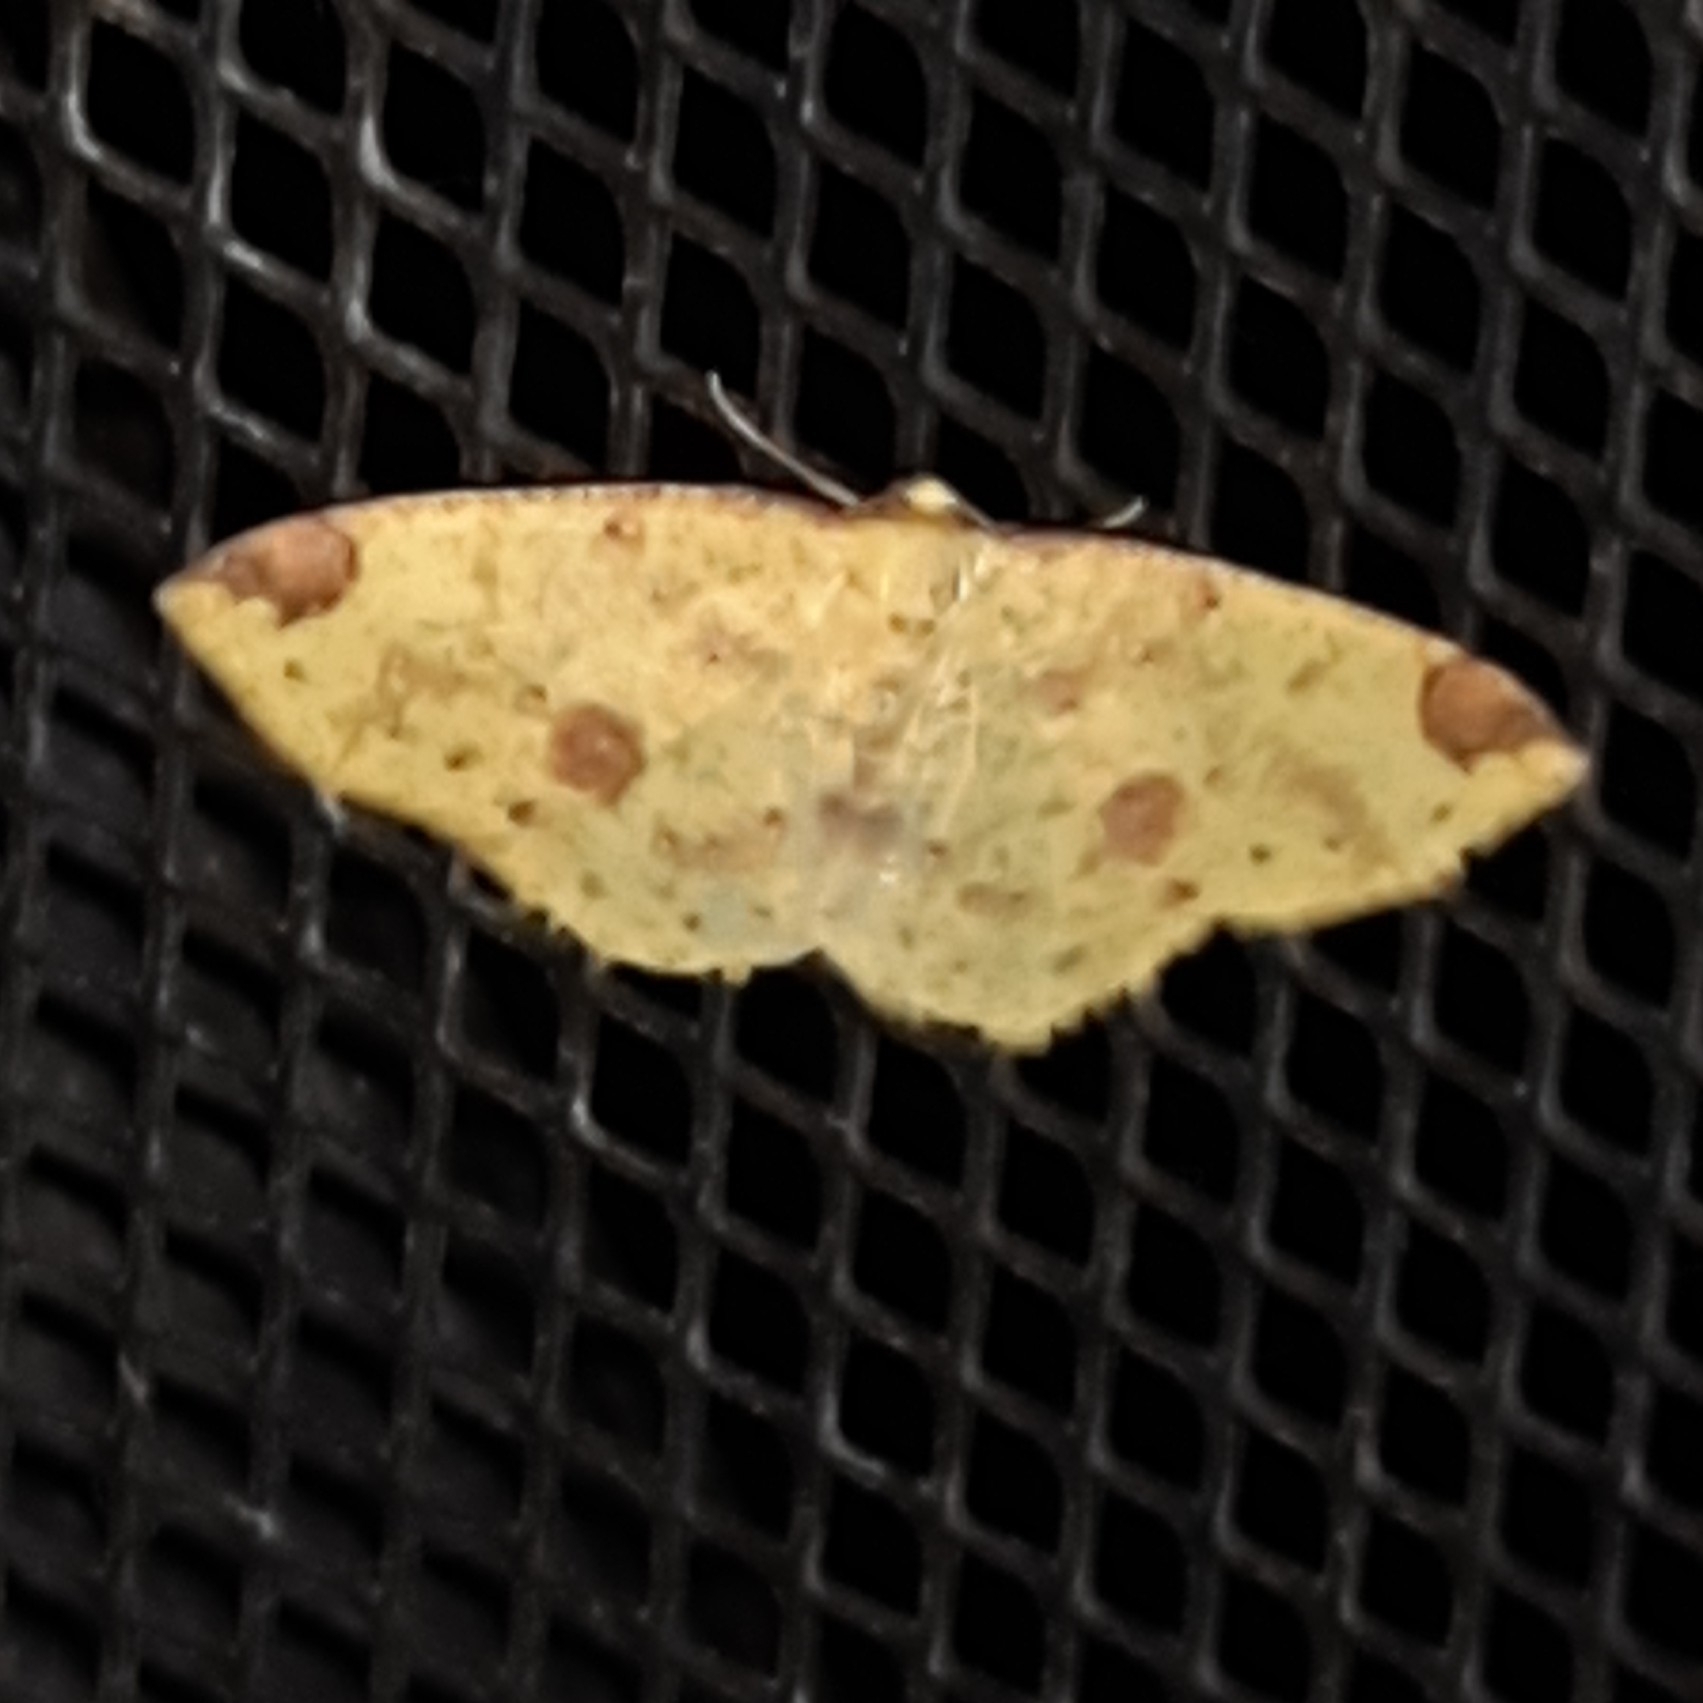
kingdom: Animalia
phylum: Arthropoda
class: Insecta
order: Lepidoptera
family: Geometridae
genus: Periclina
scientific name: Periclina apricaria
